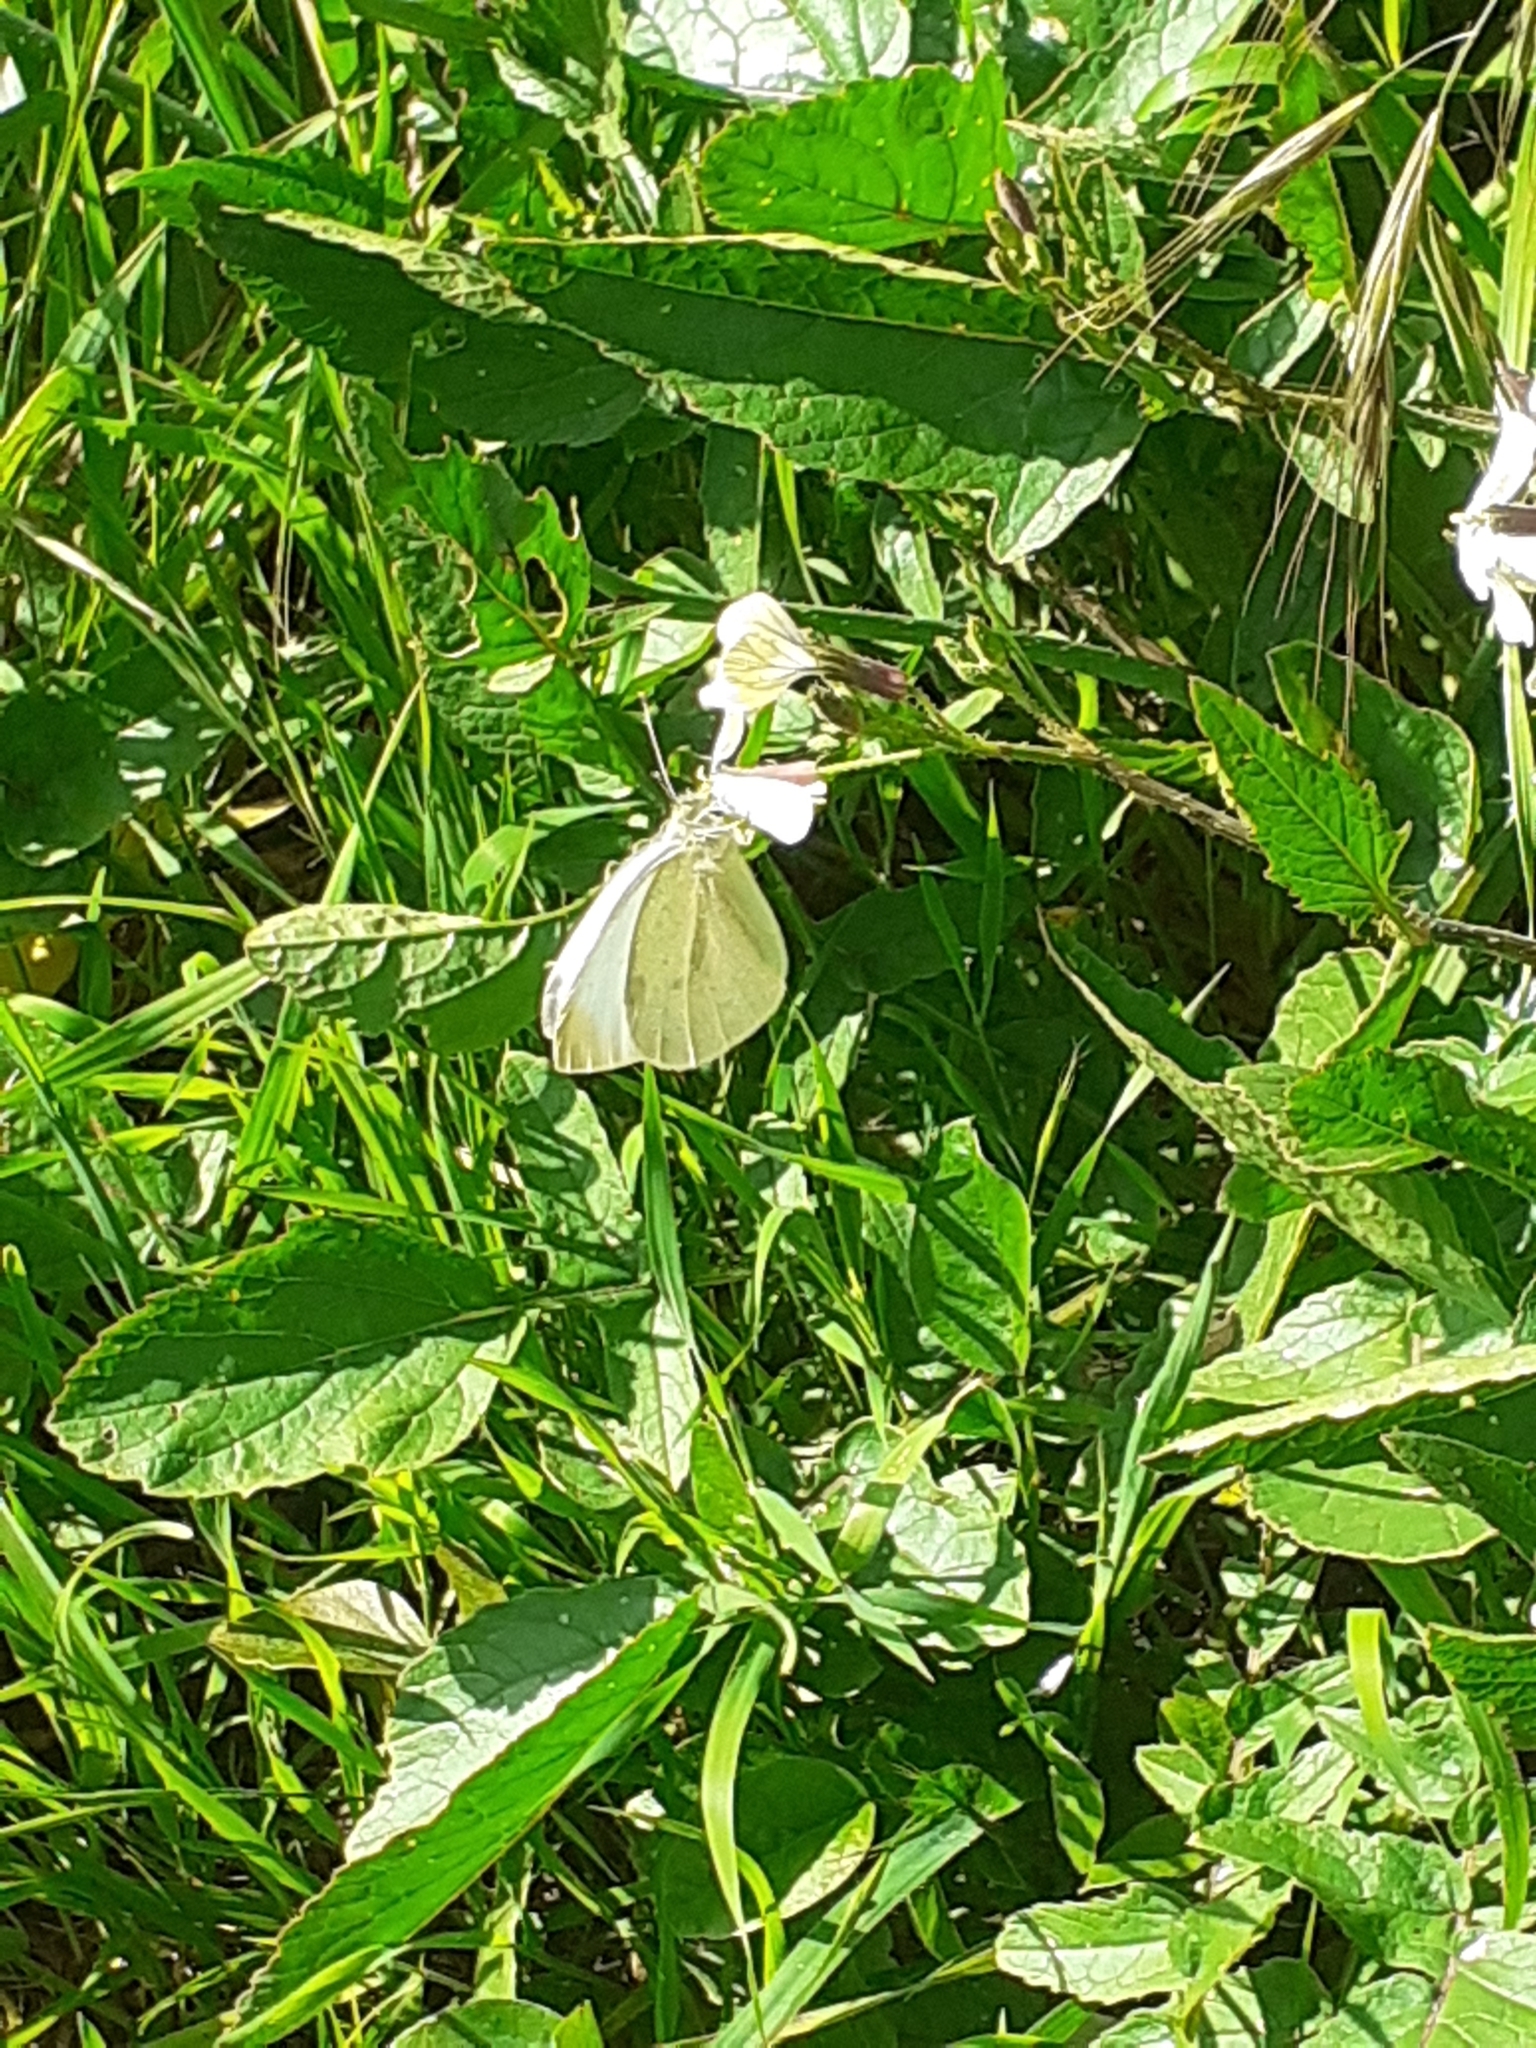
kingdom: Animalia
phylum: Arthropoda
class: Insecta
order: Lepidoptera
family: Pieridae
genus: Pieris
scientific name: Pieris rapae
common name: Small white
